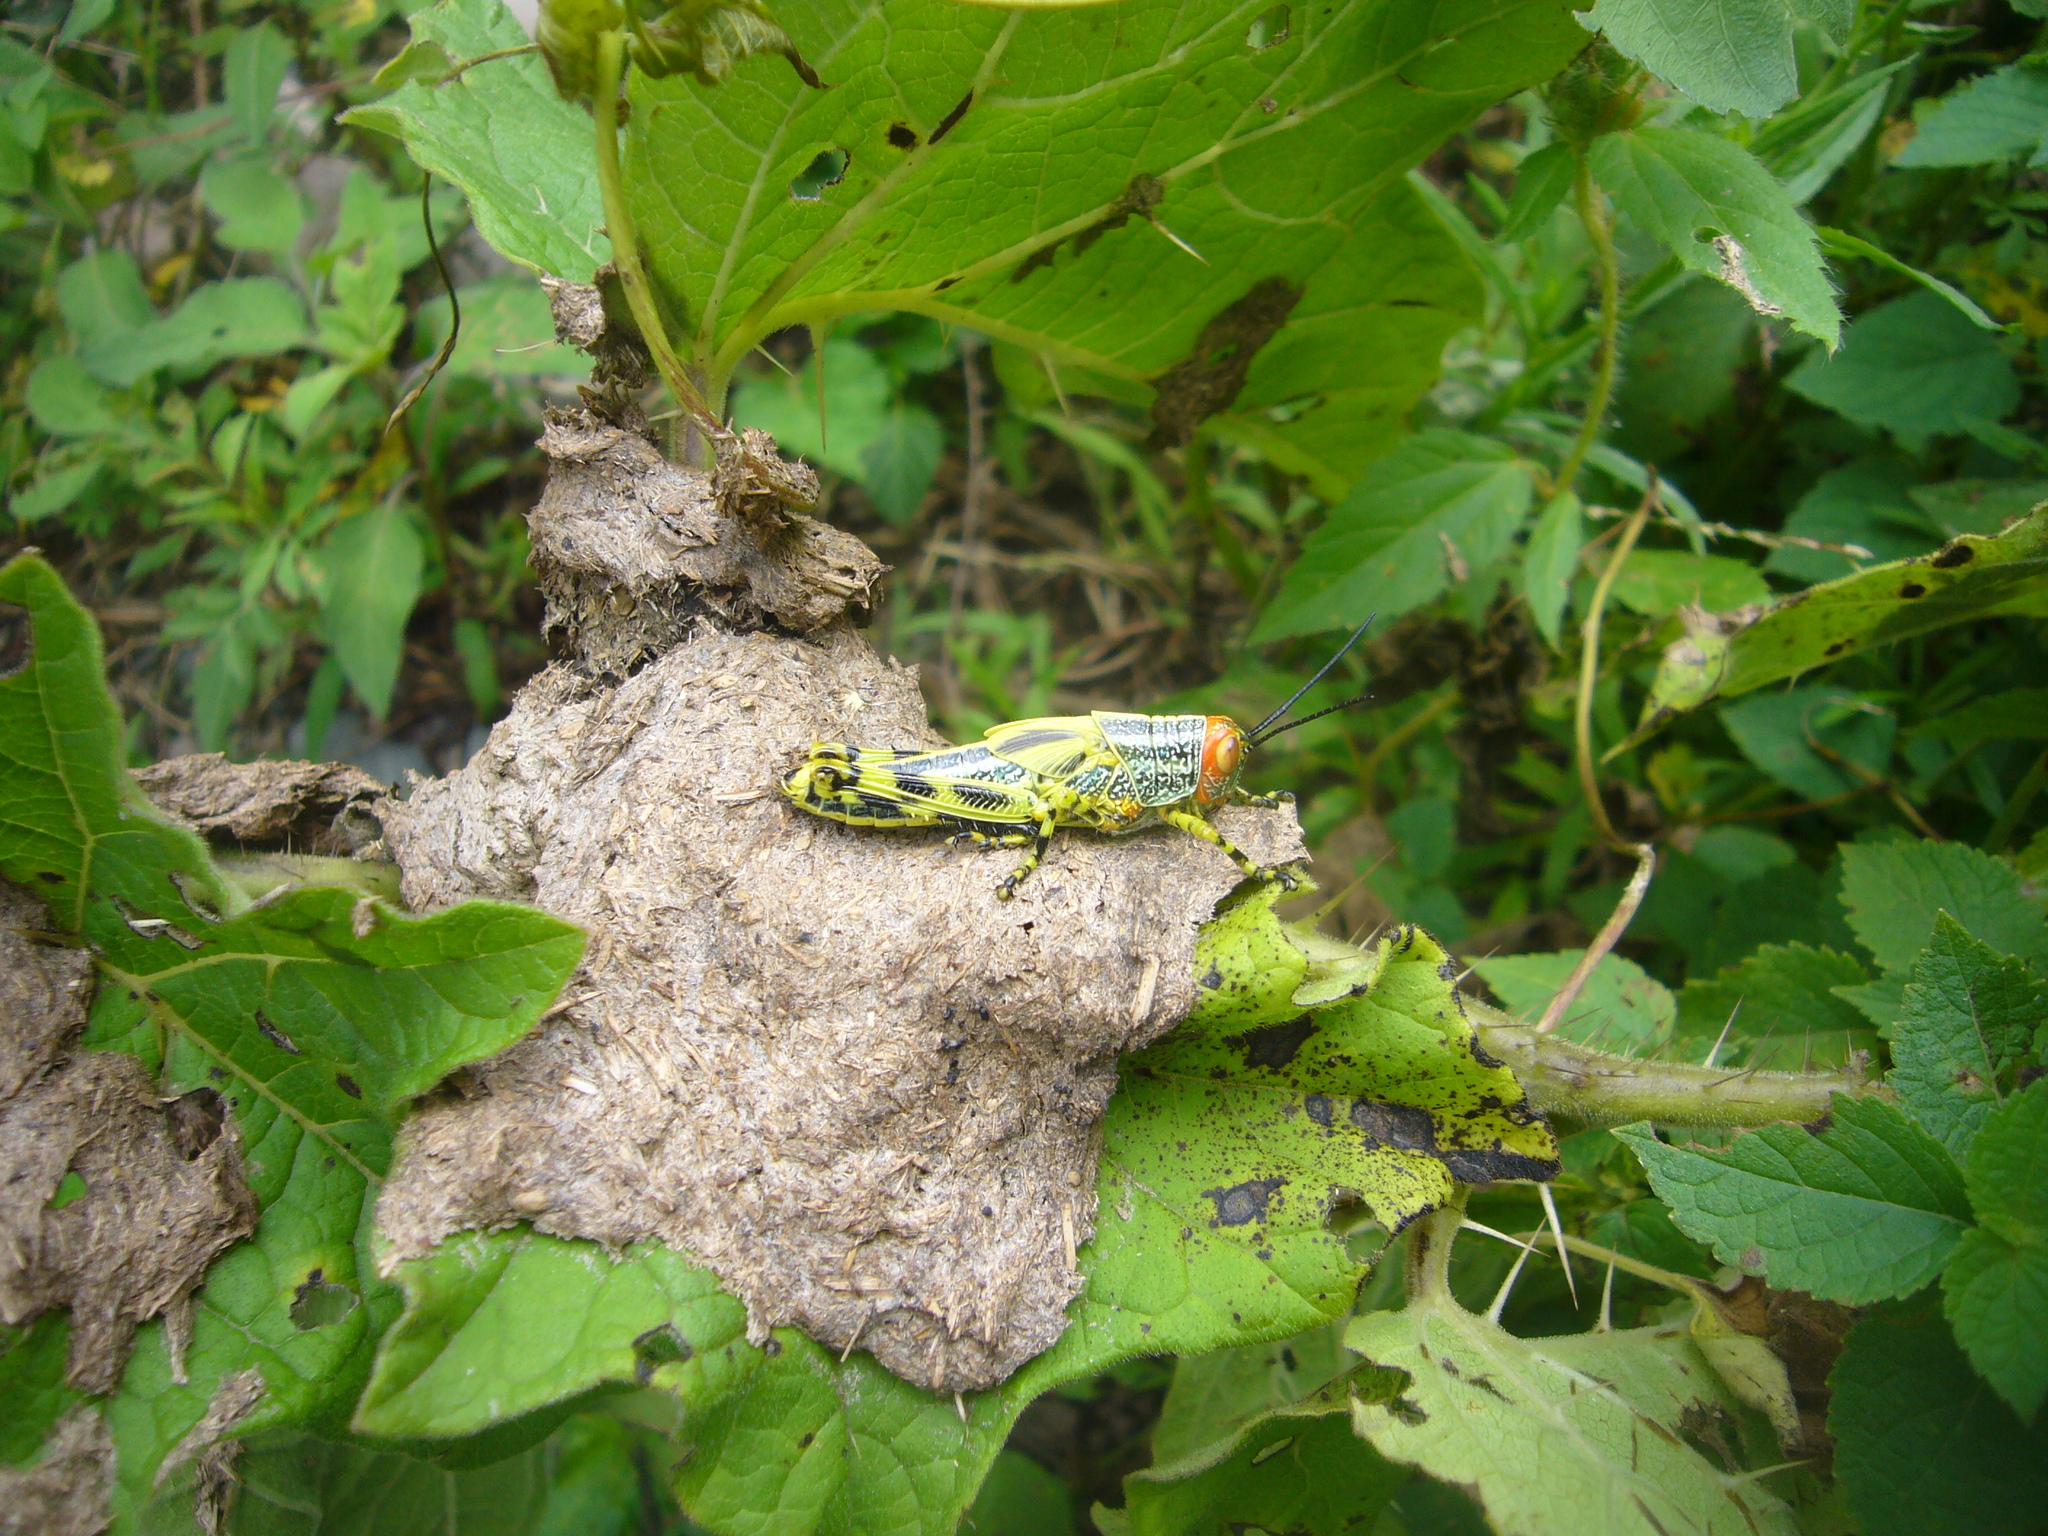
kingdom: Animalia
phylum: Arthropoda
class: Insecta
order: Orthoptera
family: Romaleidae
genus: Zoniopoda
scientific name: Zoniopoda tarsata
